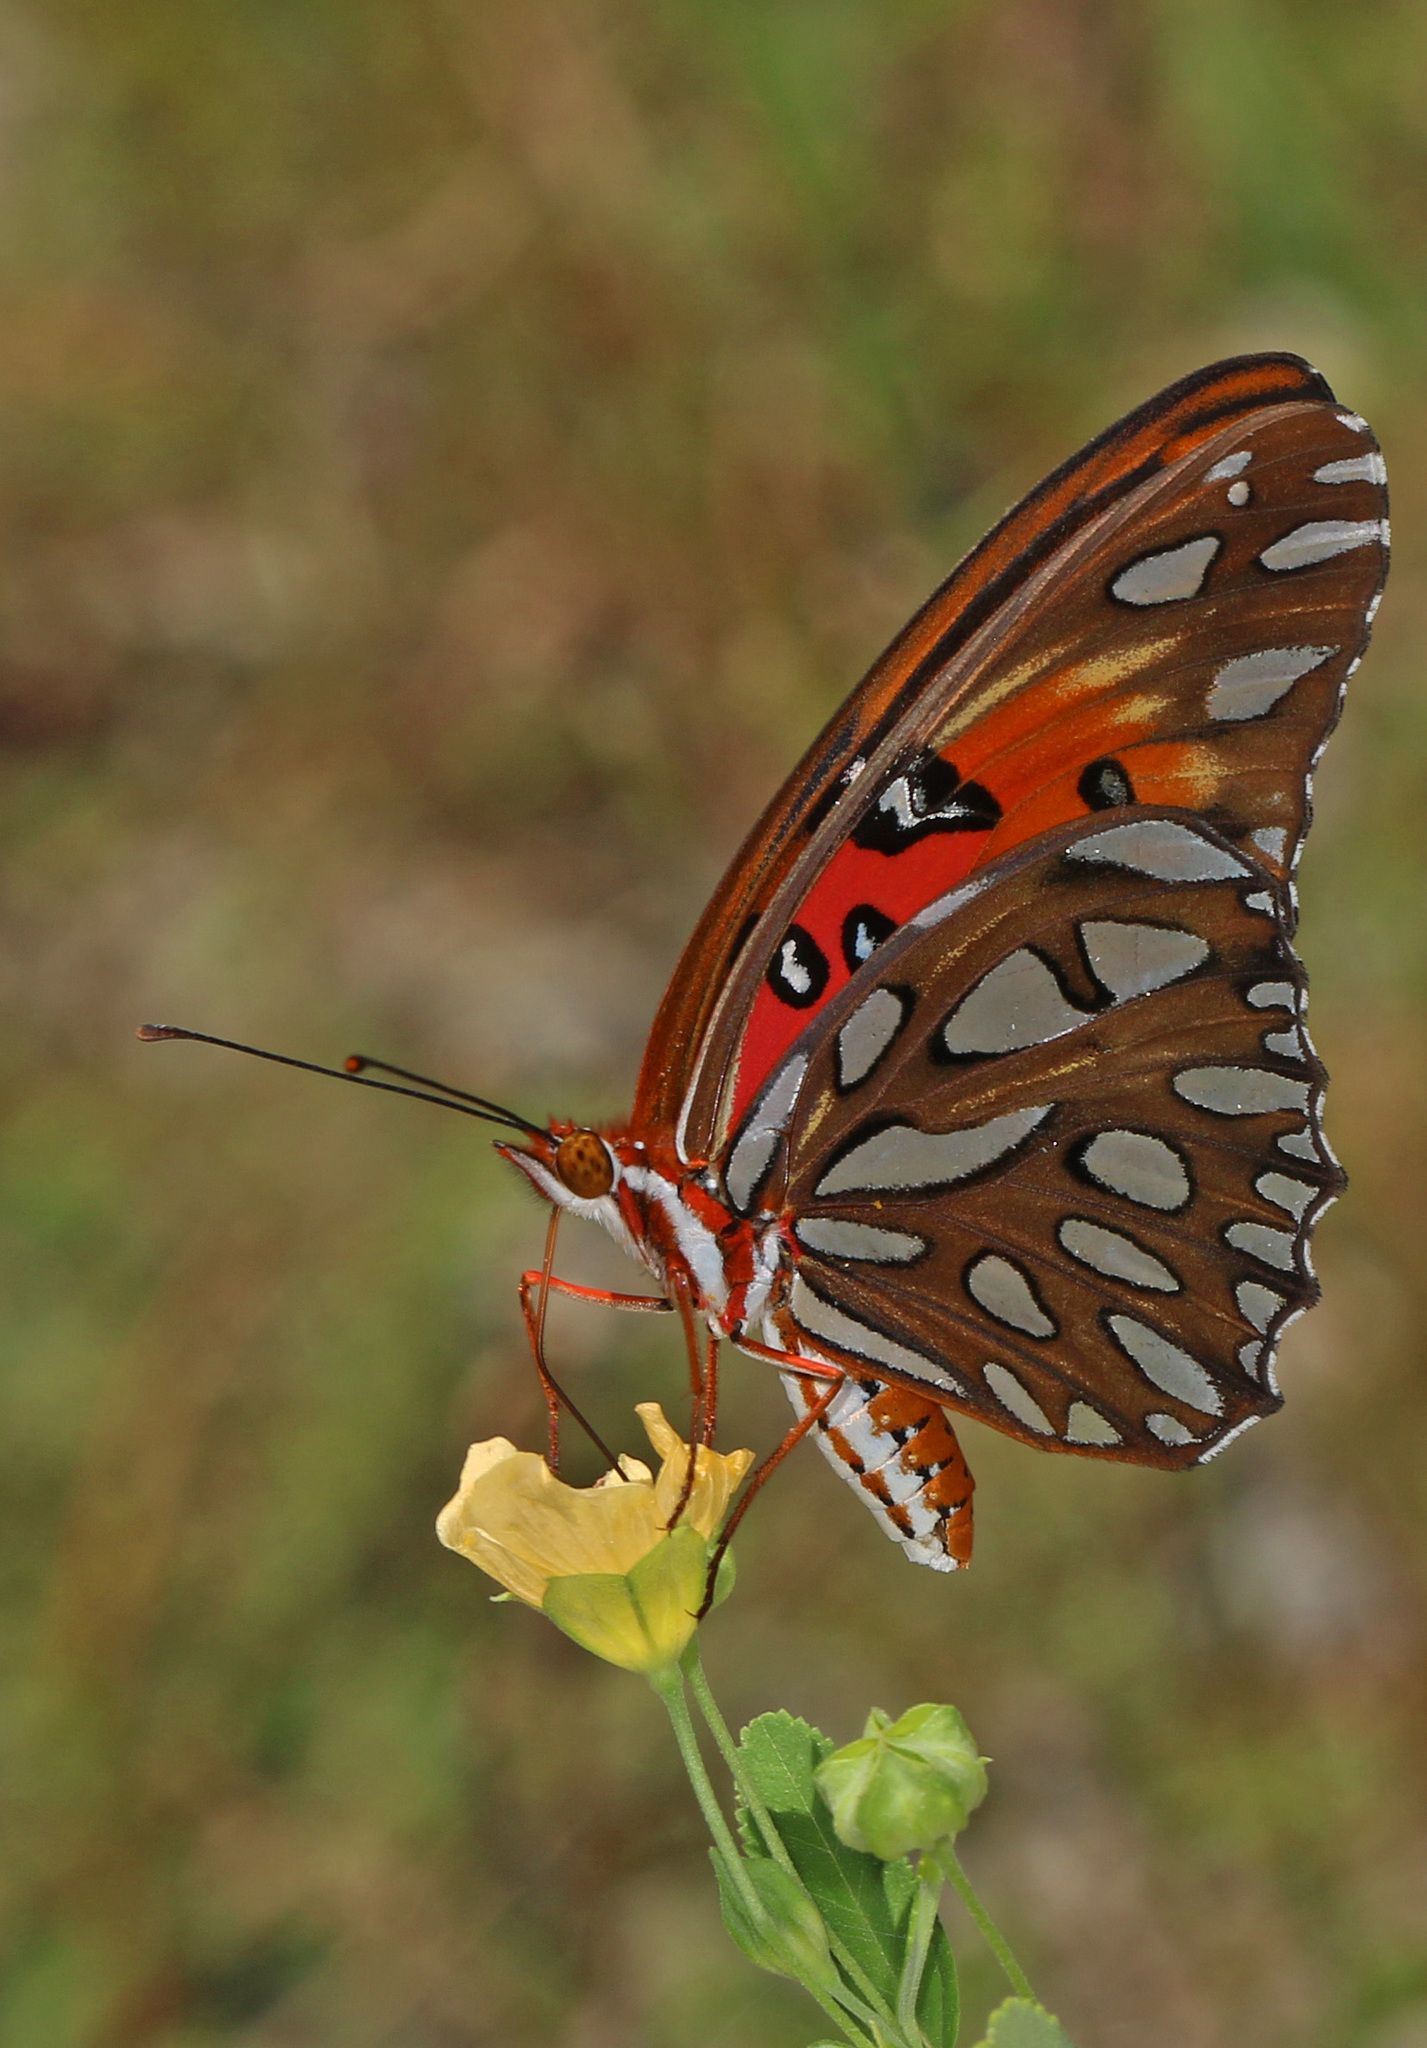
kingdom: Animalia
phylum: Arthropoda
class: Insecta
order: Lepidoptera
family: Nymphalidae
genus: Dione
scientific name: Dione vanillae
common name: Gulf fritillary
